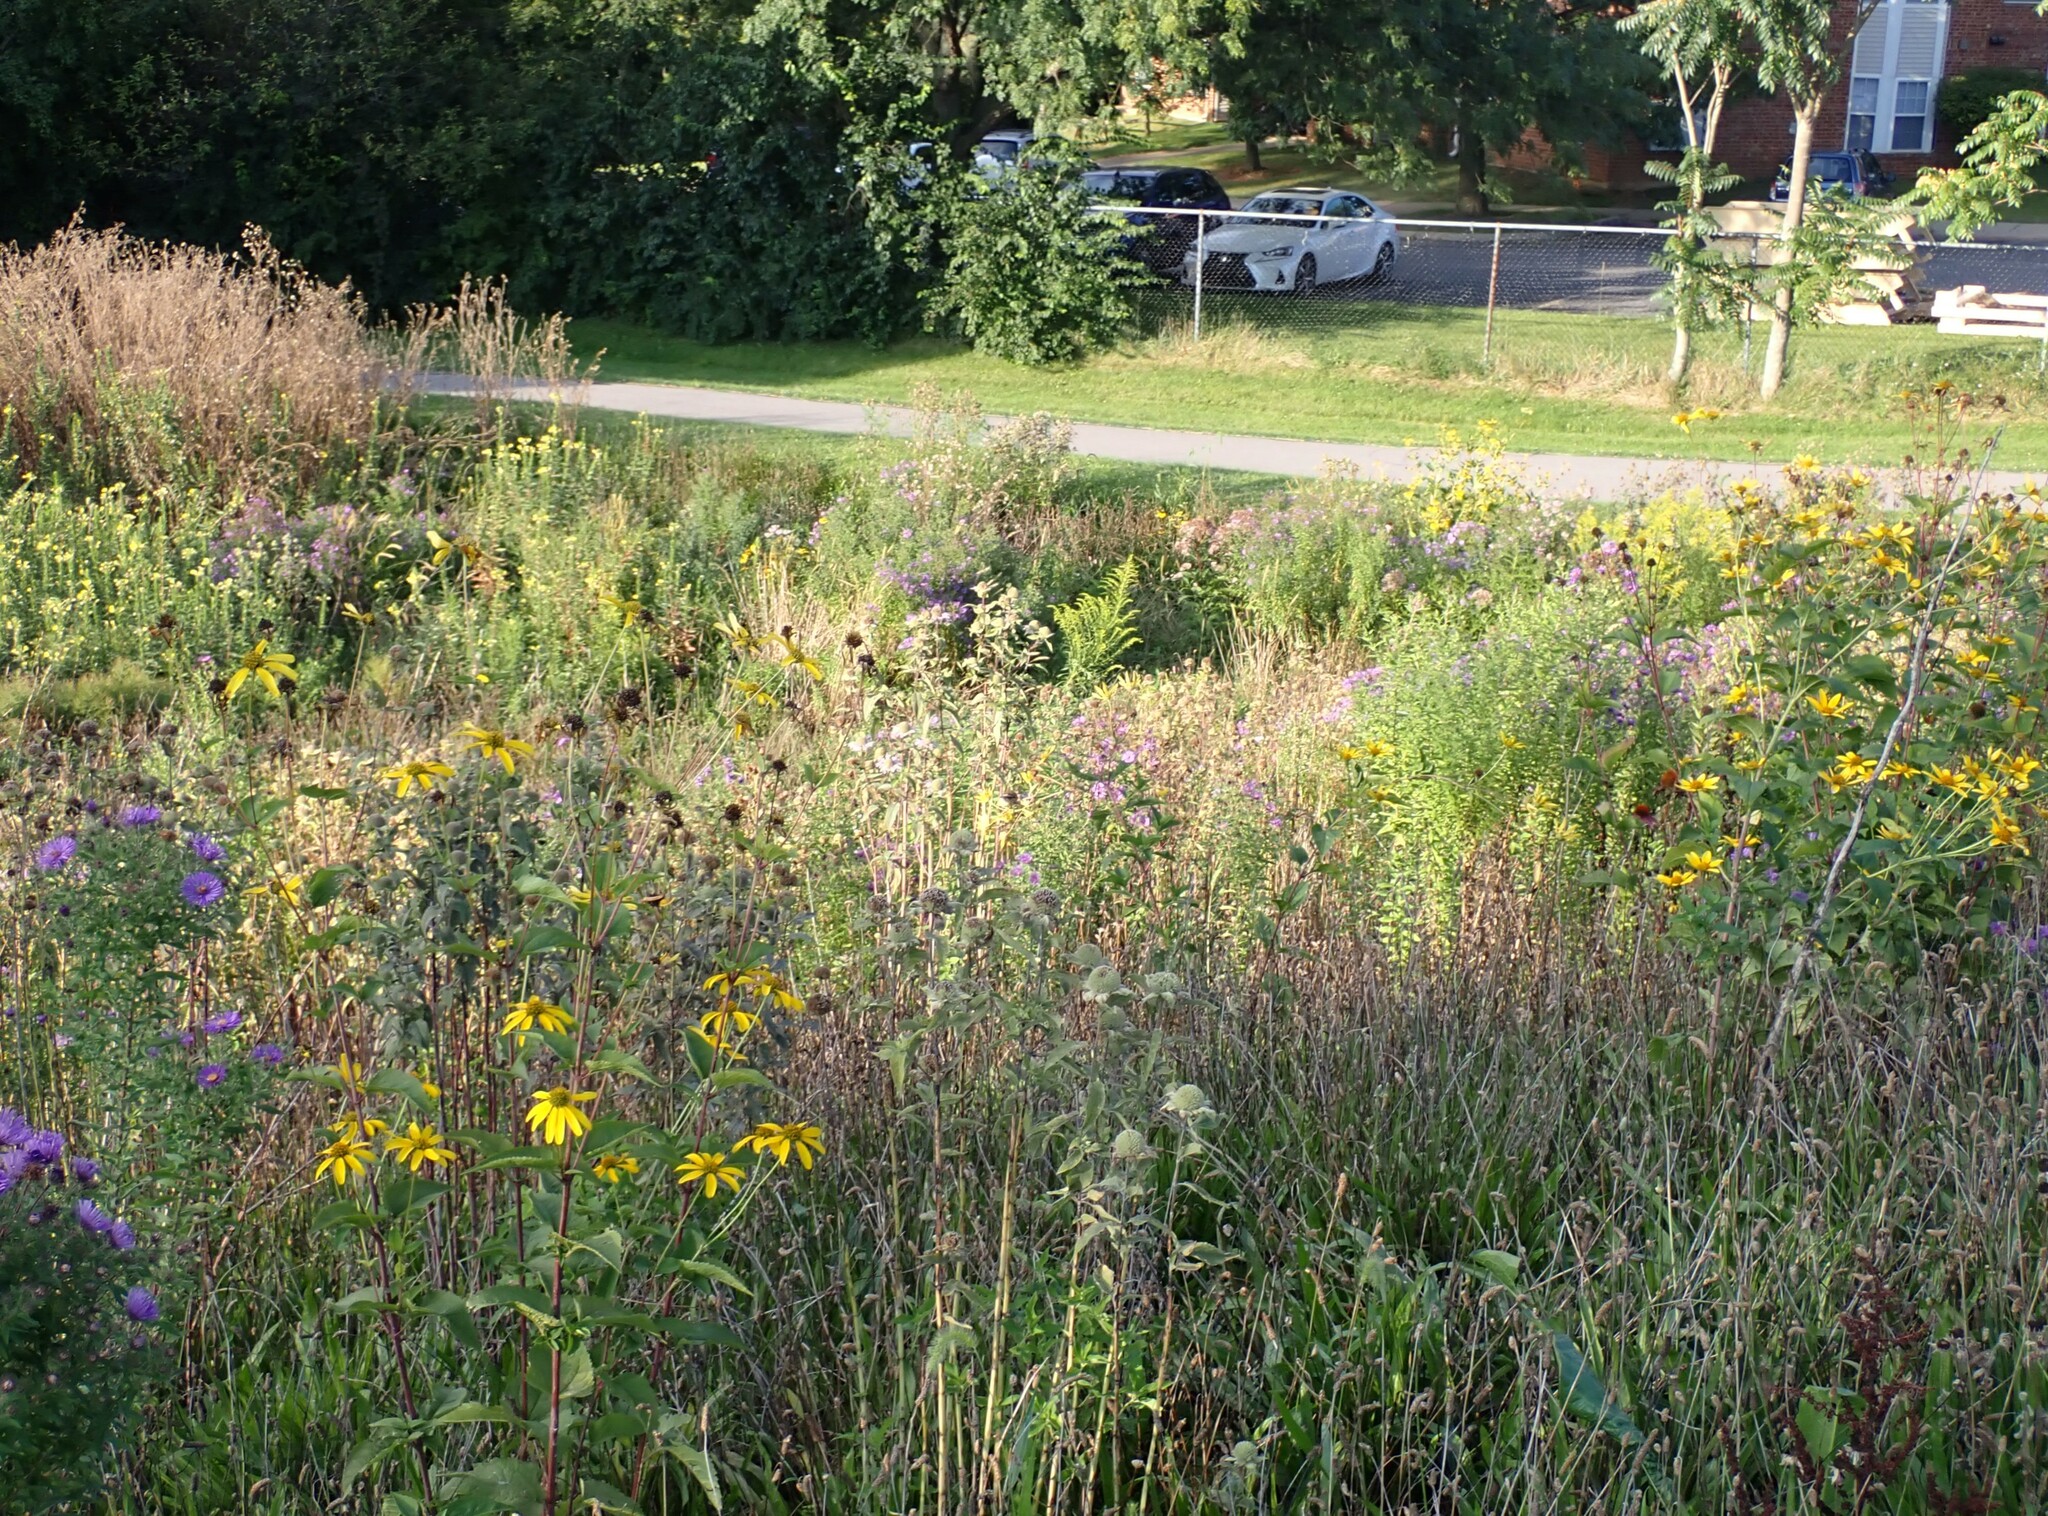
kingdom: Animalia
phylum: Chordata
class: Aves
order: Passeriformes
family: Fringillidae
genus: Spinus
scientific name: Spinus tristis
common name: American goldfinch
